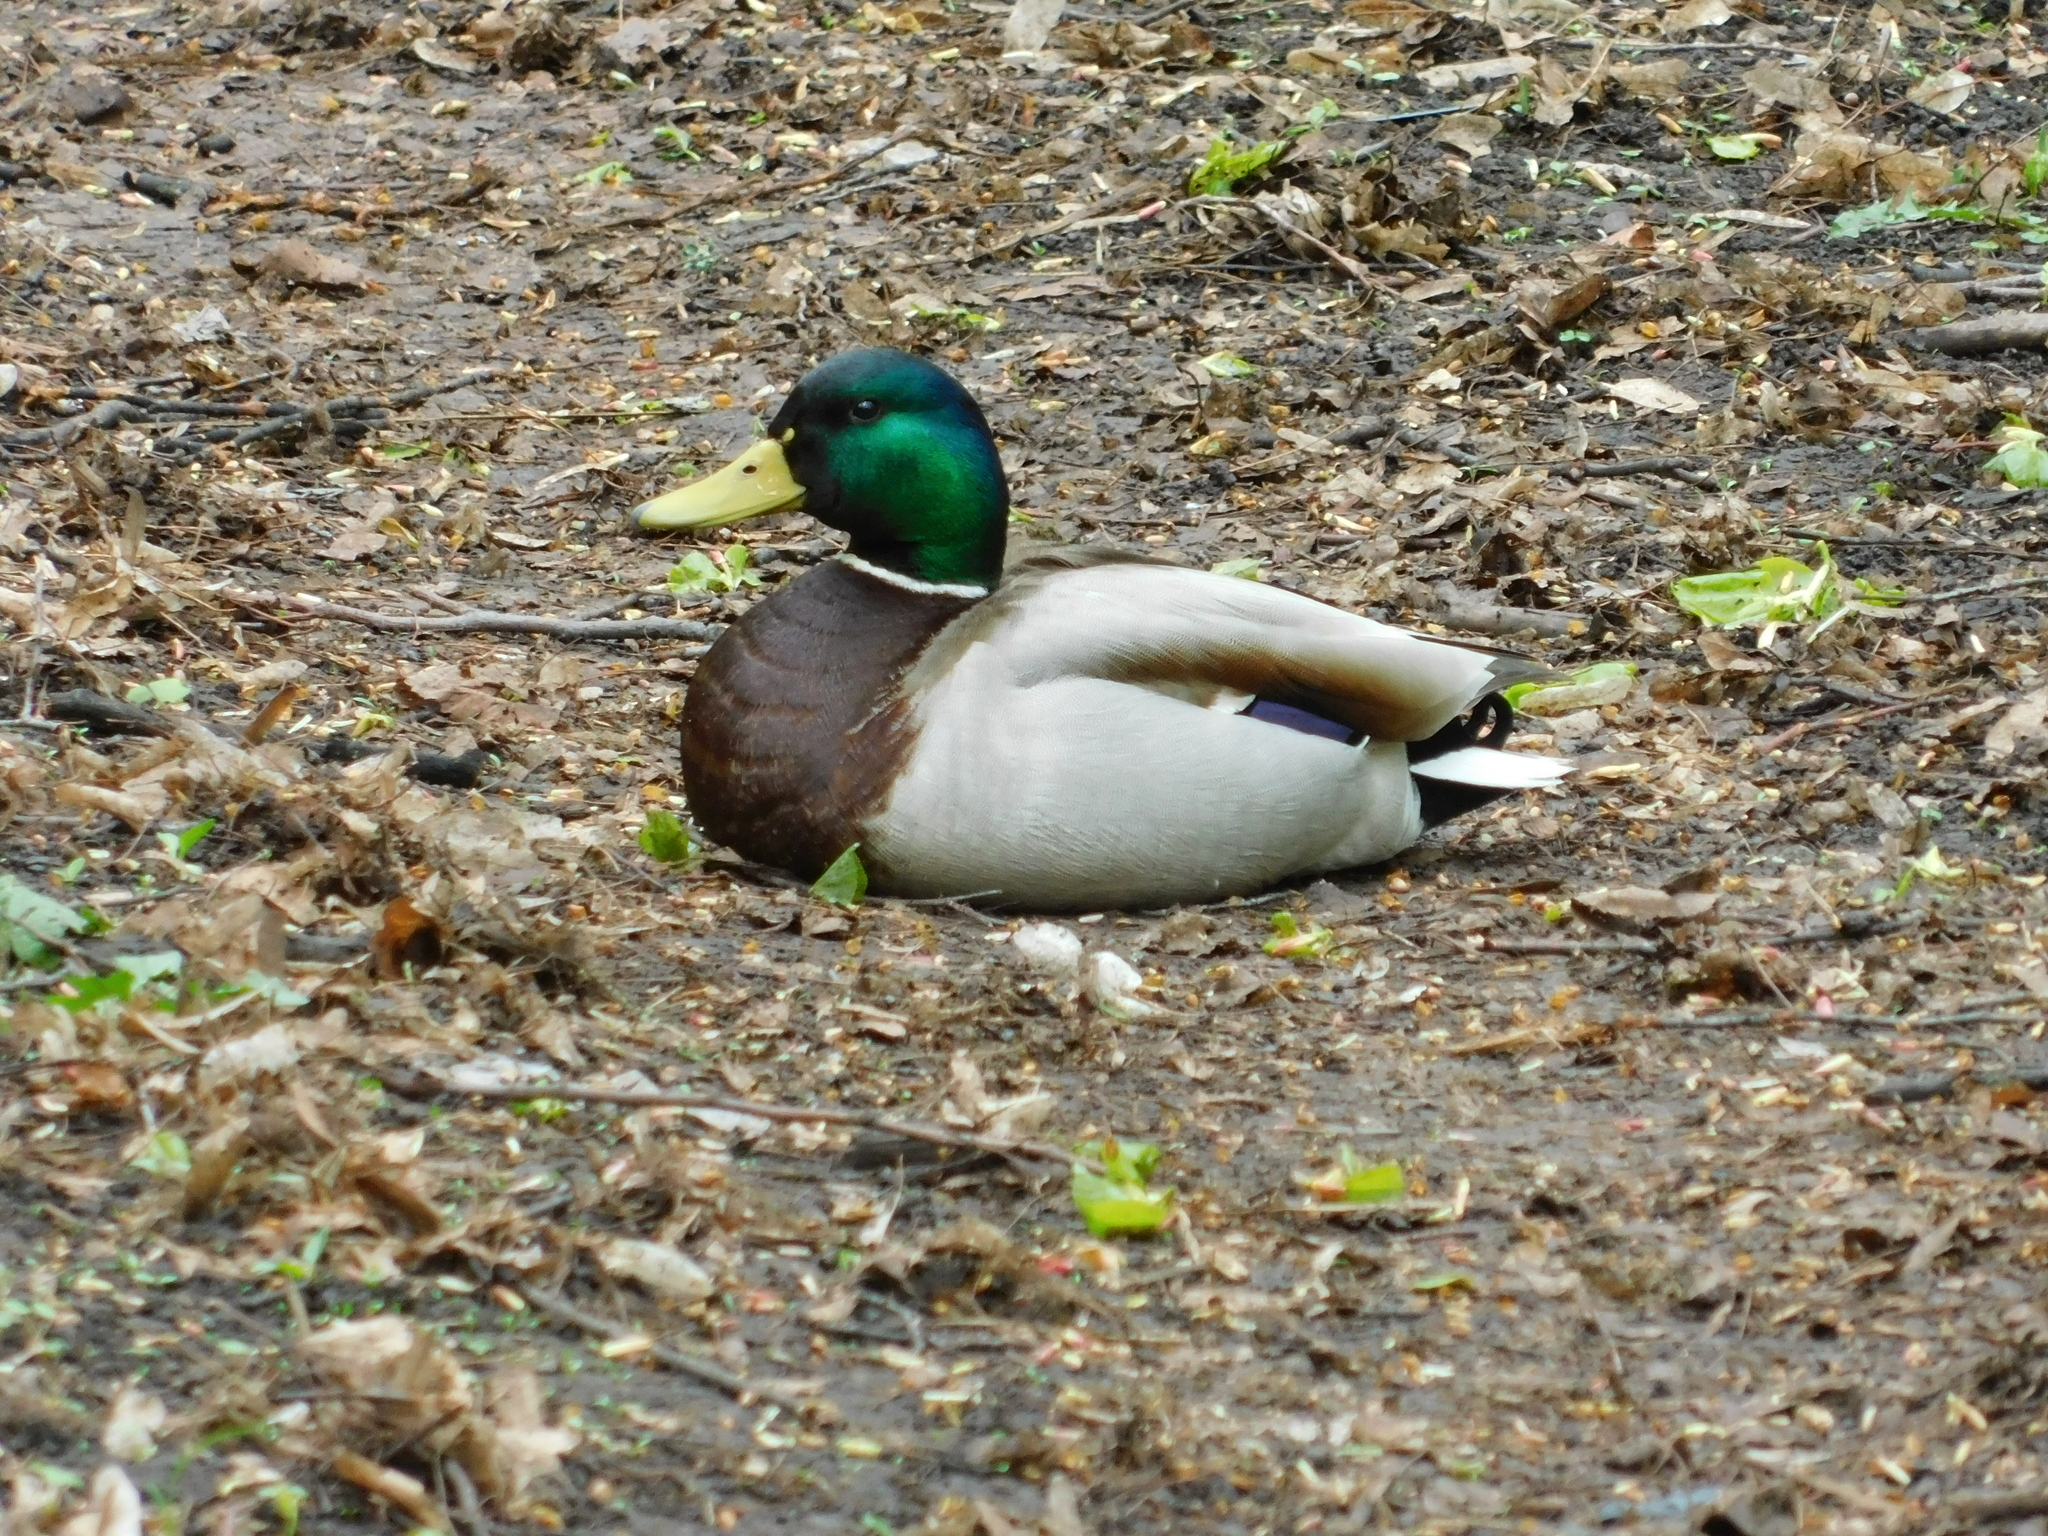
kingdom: Animalia
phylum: Chordata
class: Aves
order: Anseriformes
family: Anatidae
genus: Anas
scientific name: Anas platyrhynchos
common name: Mallard
